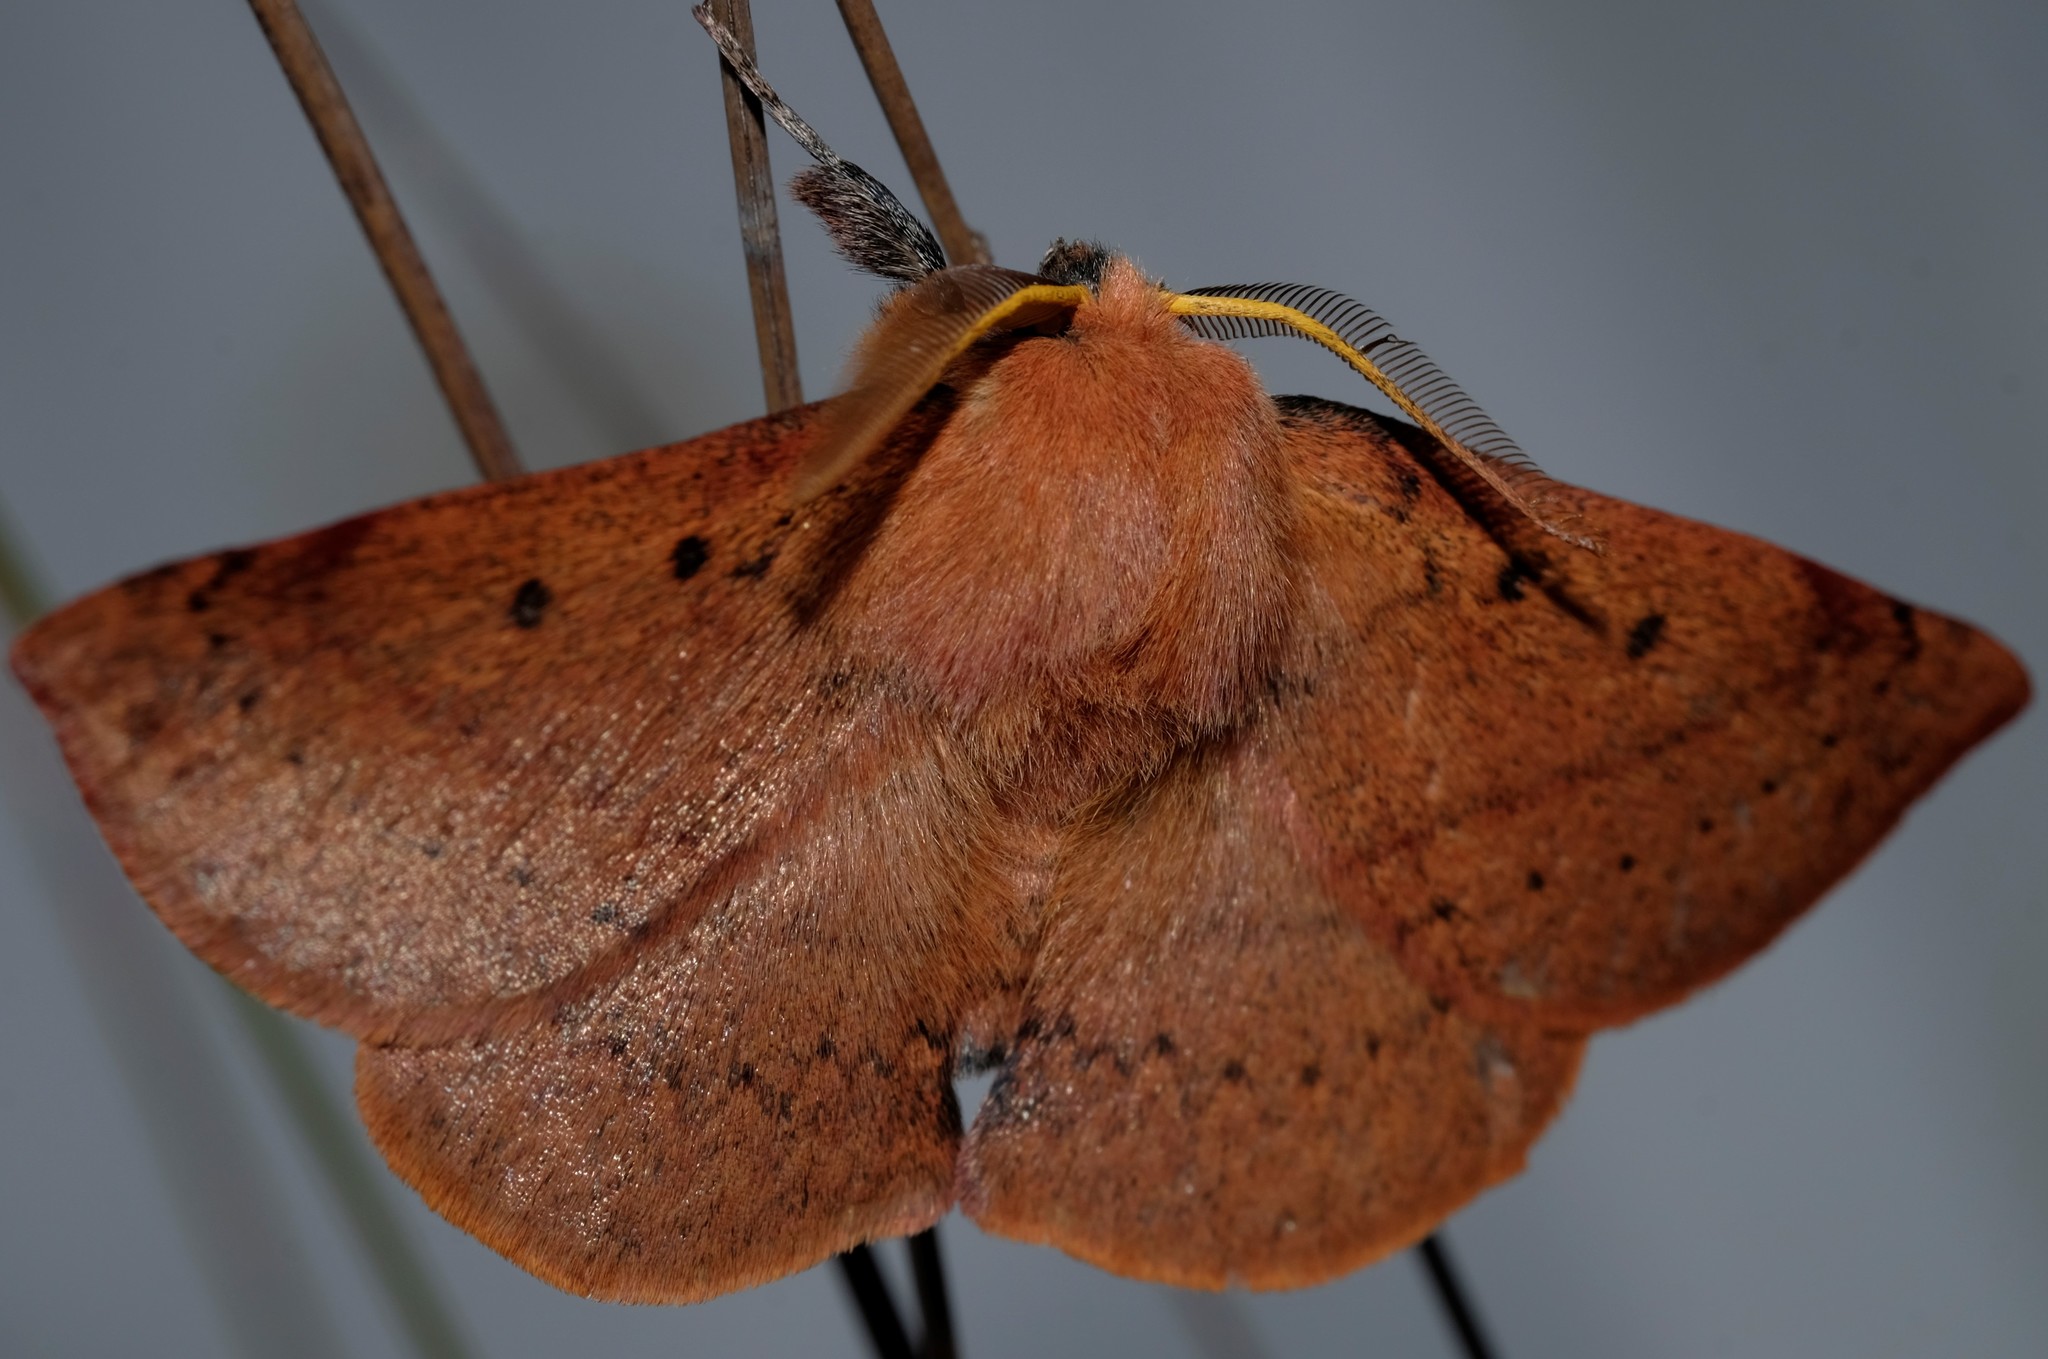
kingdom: Animalia
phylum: Arthropoda
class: Insecta
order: Lepidoptera
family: Anthelidae
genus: Anthela
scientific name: Anthela acuta
